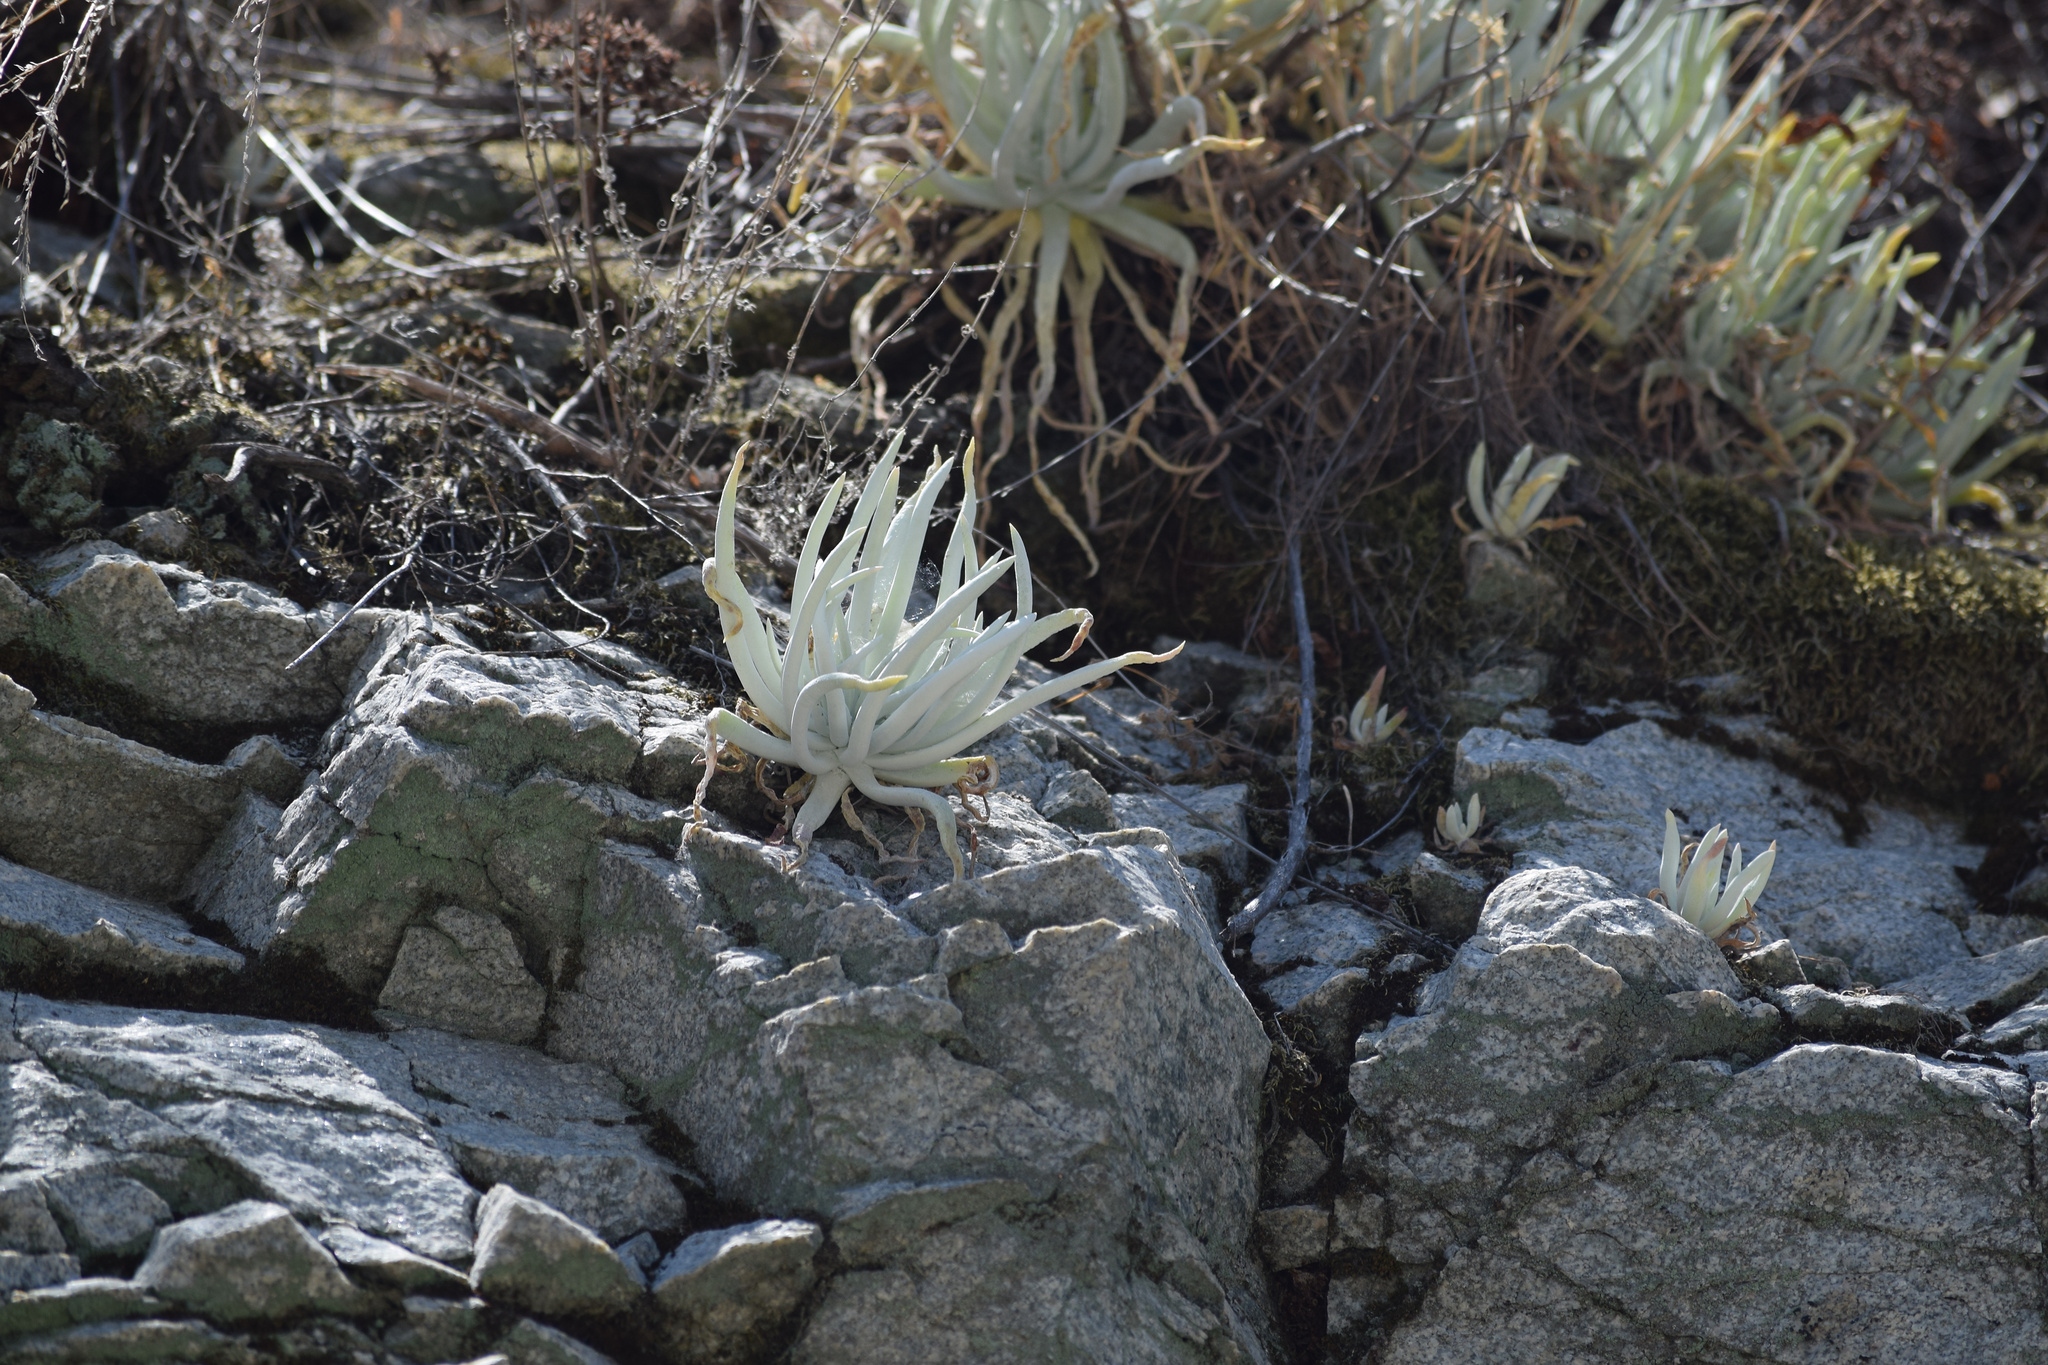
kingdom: Plantae
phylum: Tracheophyta
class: Magnoliopsida
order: Saxifragales
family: Crassulaceae
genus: Dudleya
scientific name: Dudleya densiflora
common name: San gabriel mountains dudleya
